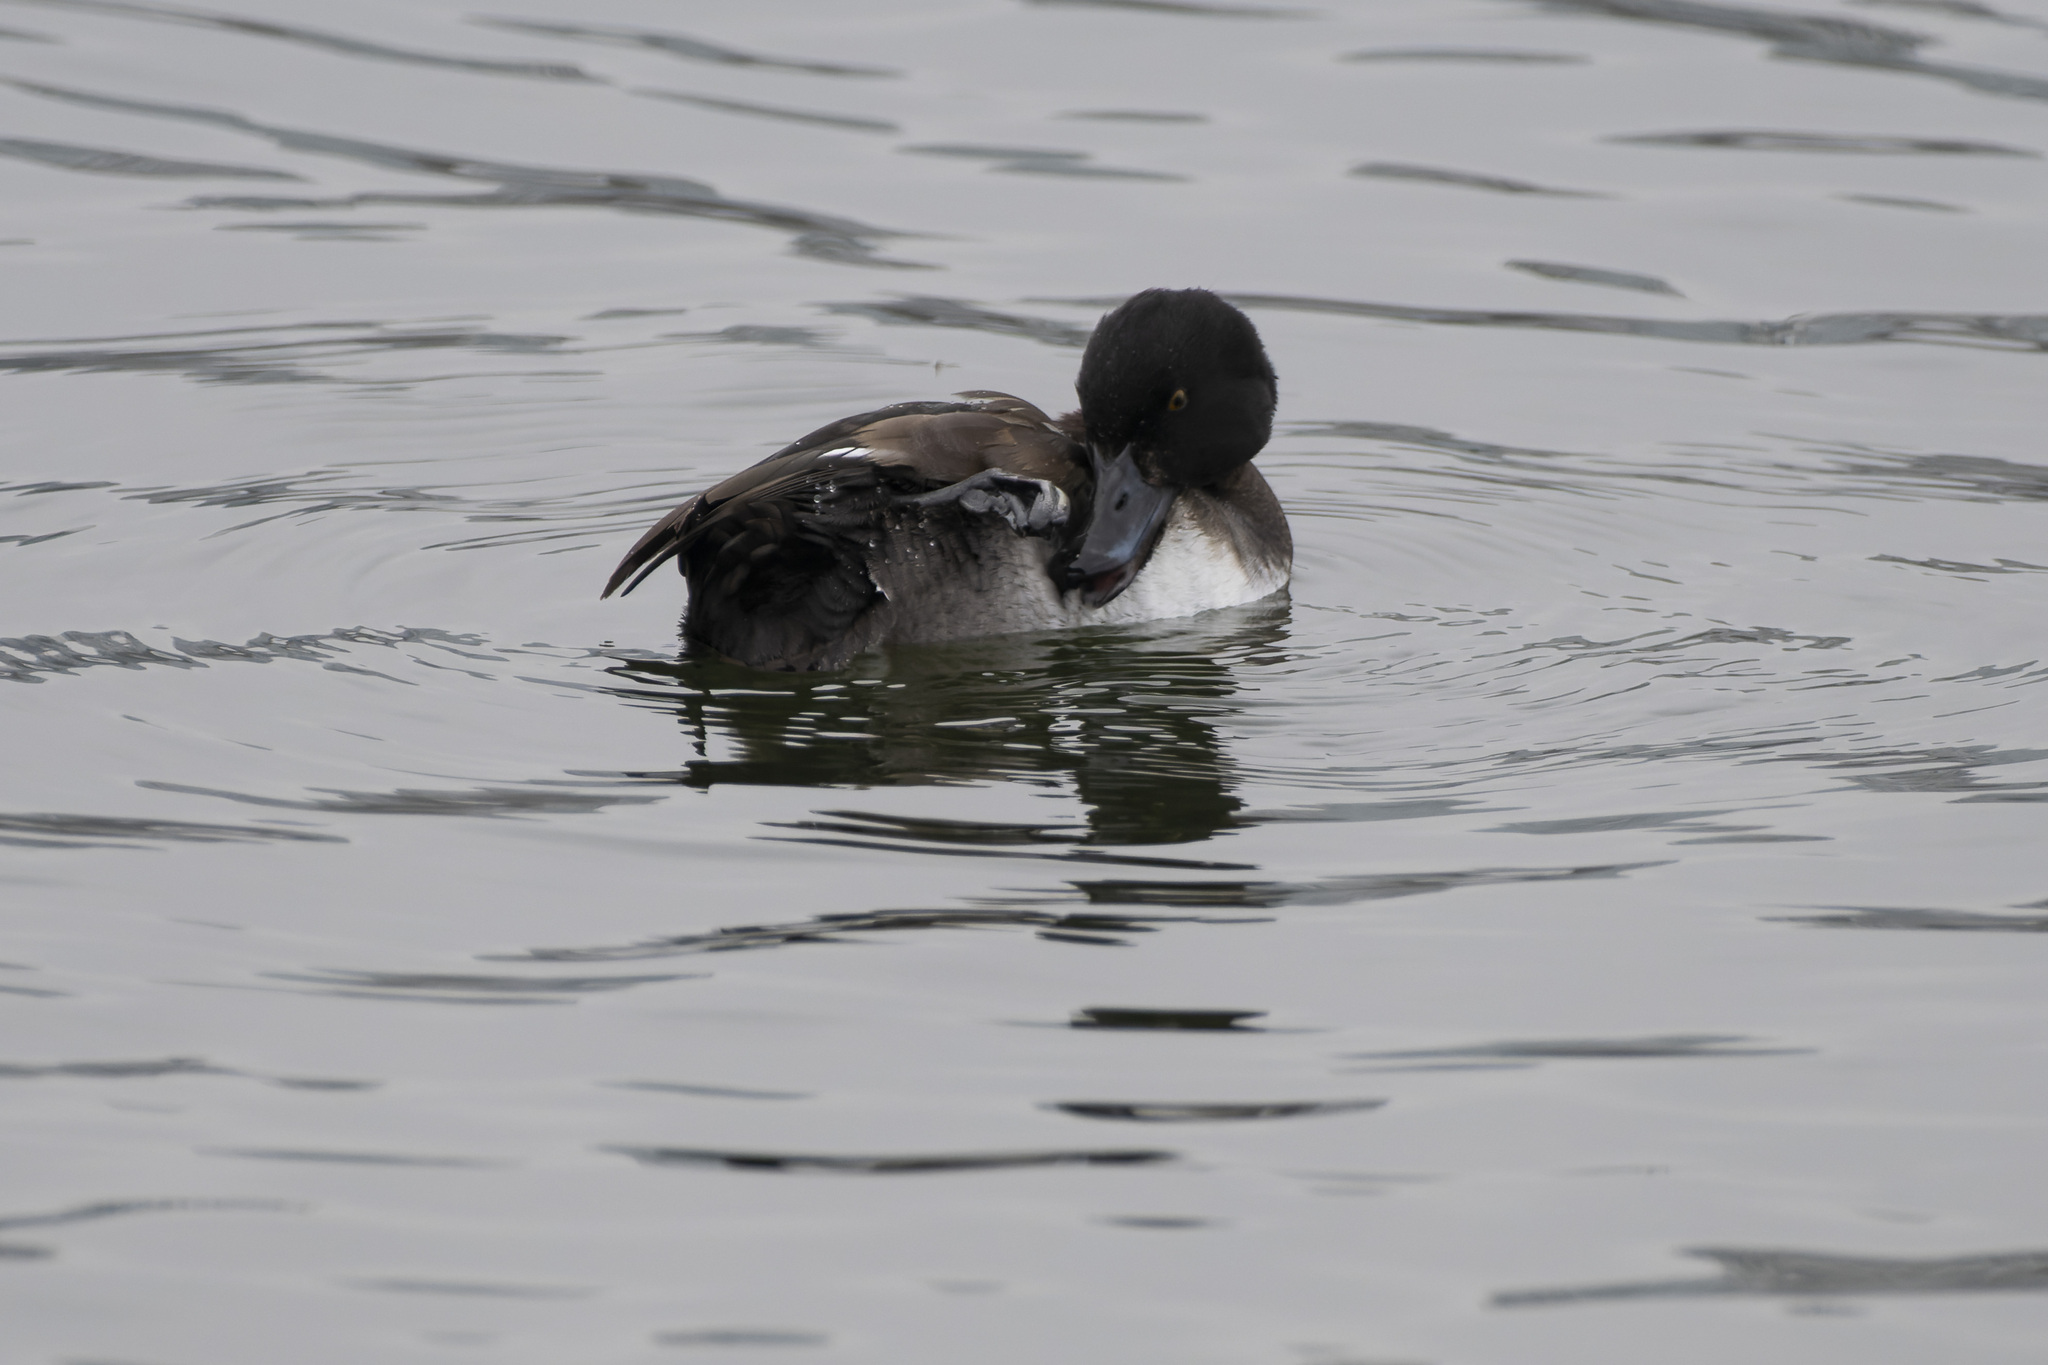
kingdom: Animalia
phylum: Chordata
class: Aves
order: Anseriformes
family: Anatidae
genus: Aythya
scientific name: Aythya fuligula
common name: Tufted duck
